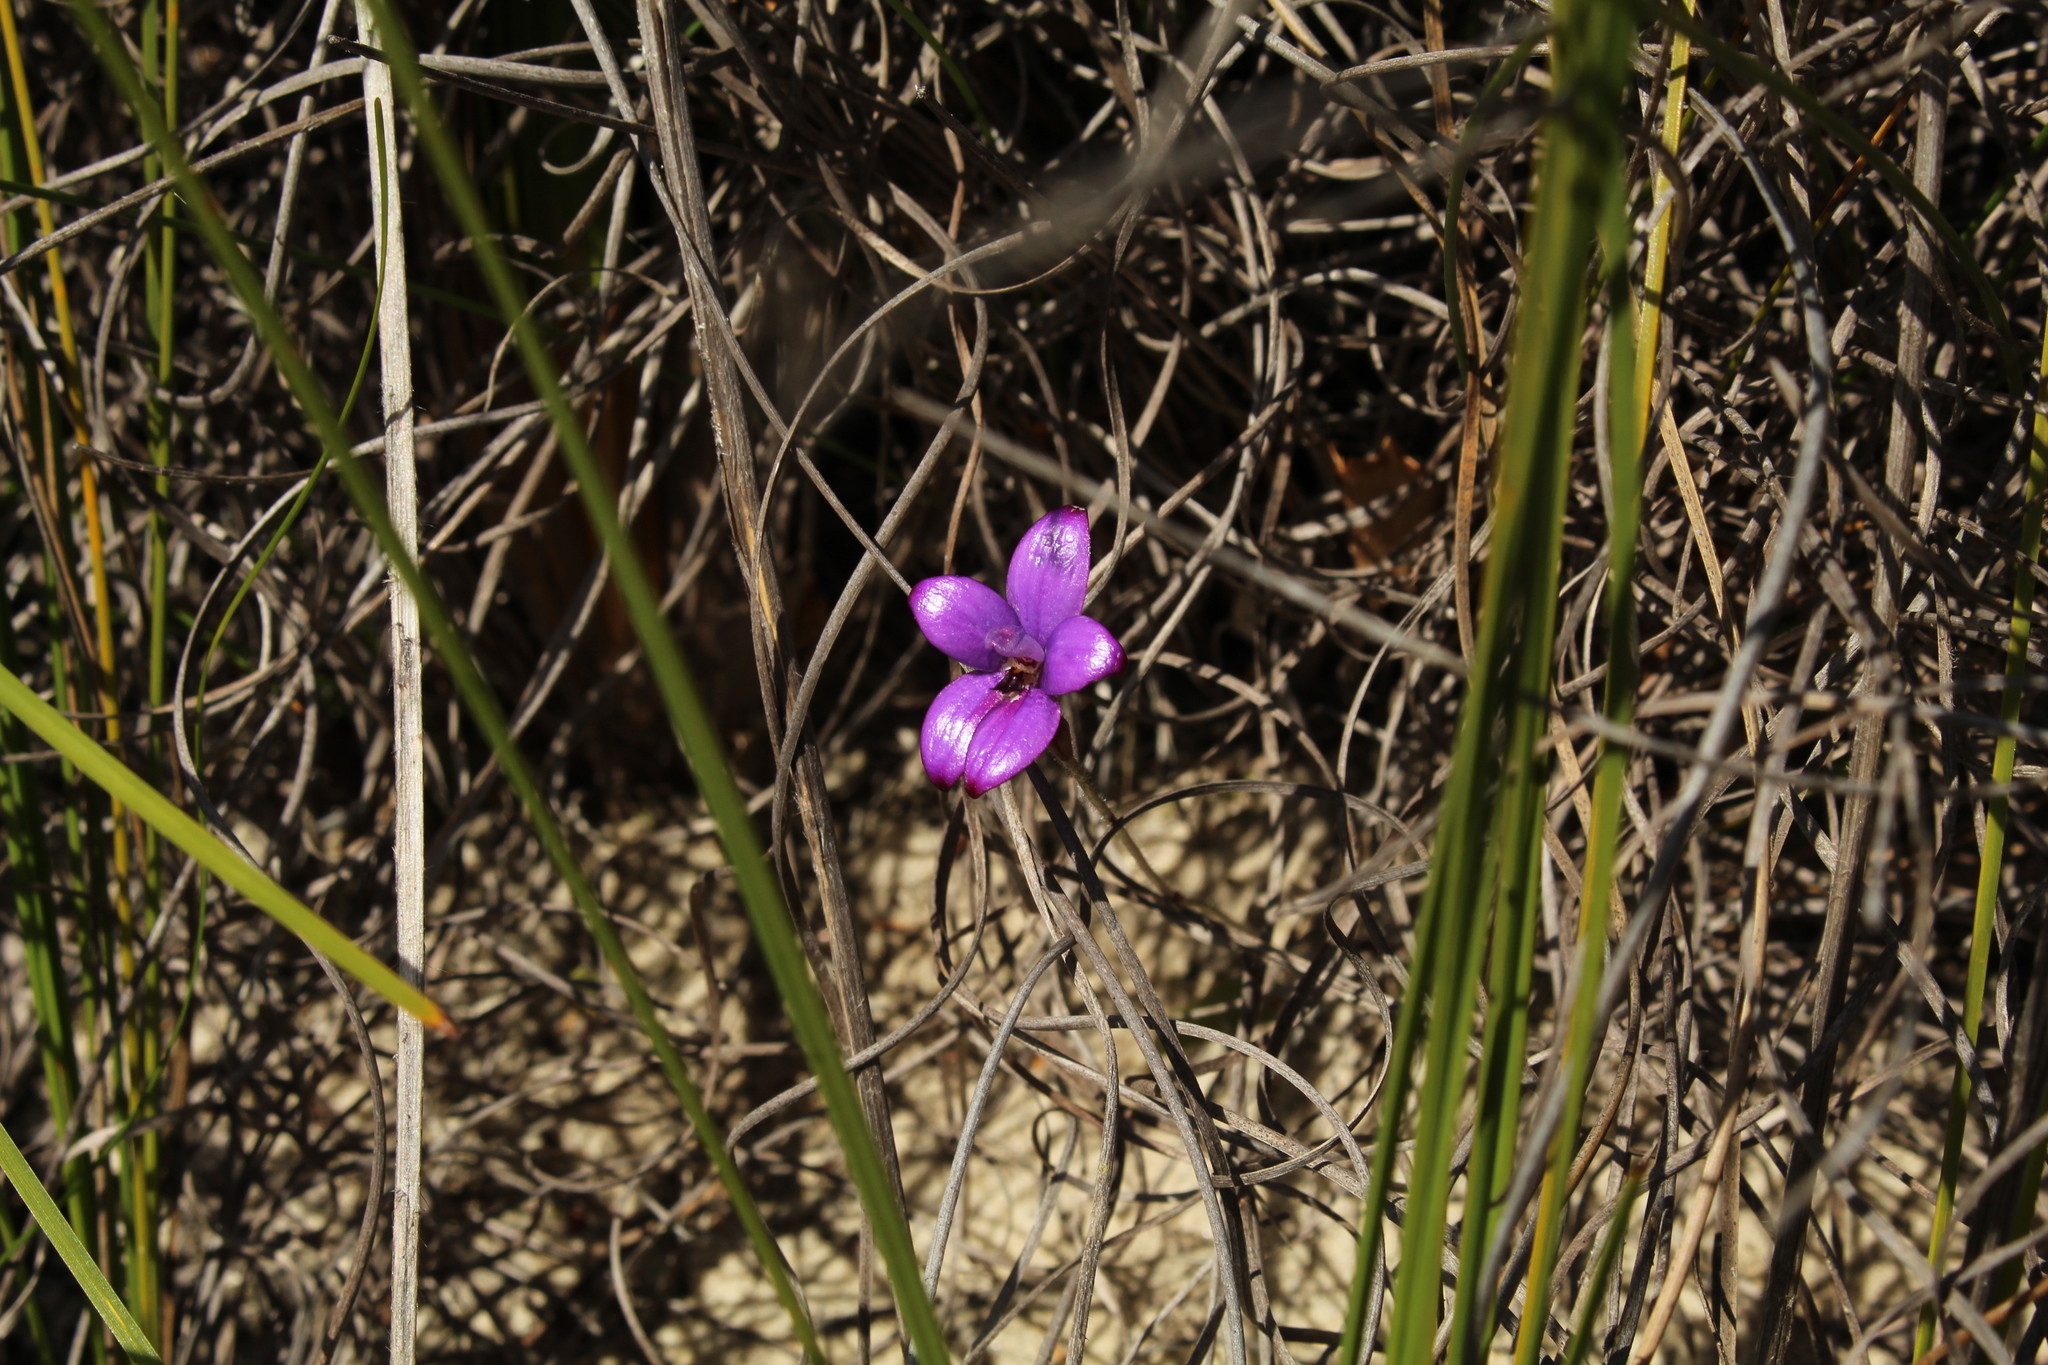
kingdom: Plantae
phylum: Tracheophyta
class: Liliopsida
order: Asparagales
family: Orchidaceae
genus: Caladenia
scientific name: Caladenia brunonis
